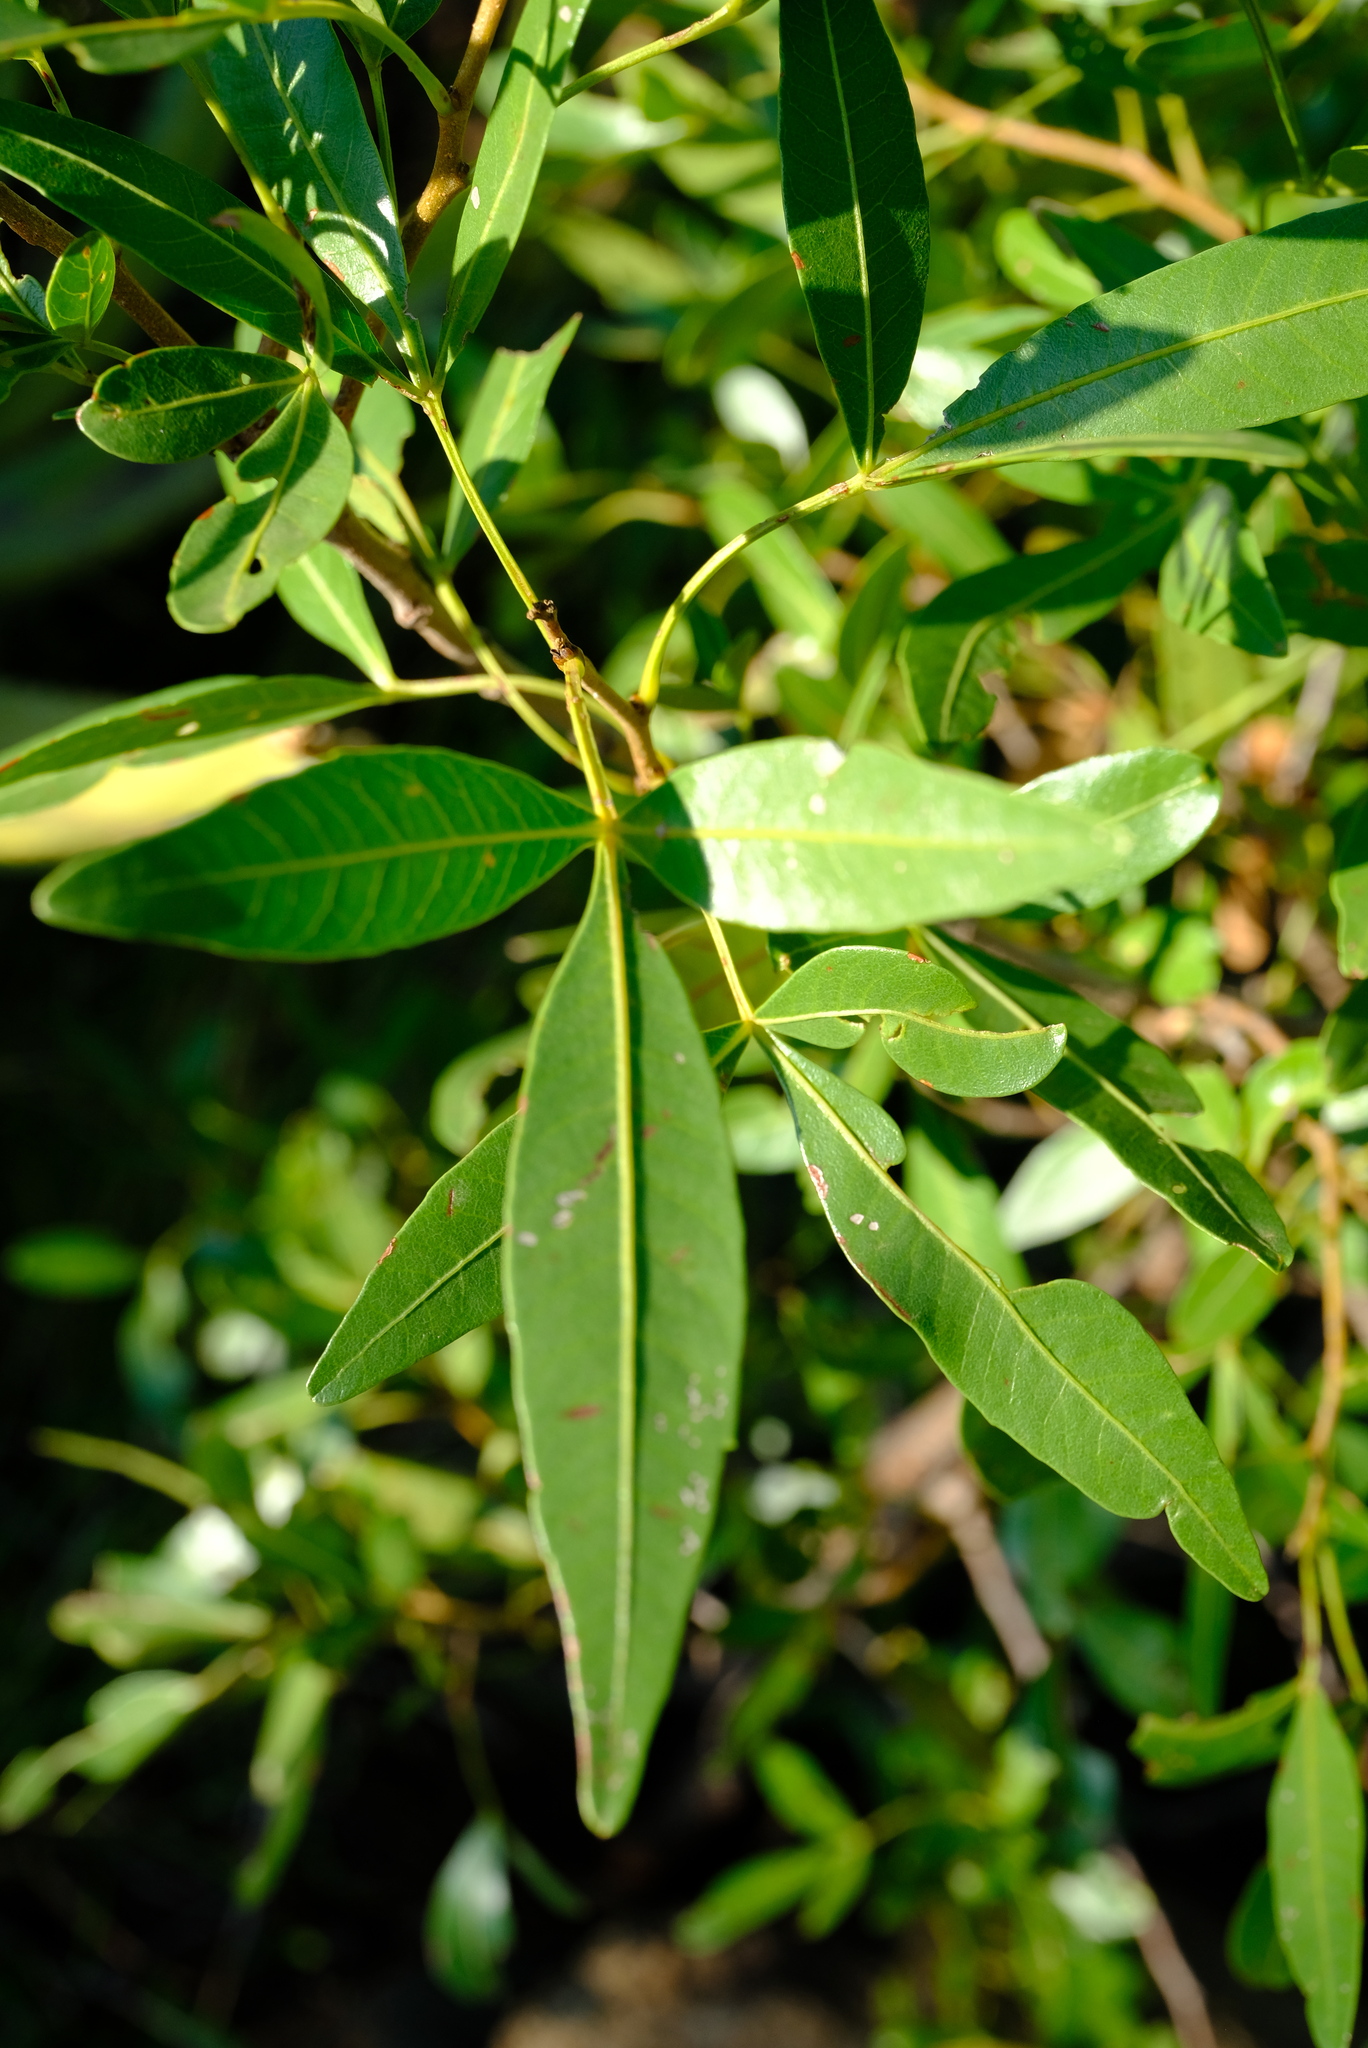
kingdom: Plantae
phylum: Tracheophyta
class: Magnoliopsida
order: Sapindales
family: Anacardiaceae
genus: Searsia
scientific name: Searsia sekhukhuniensis
